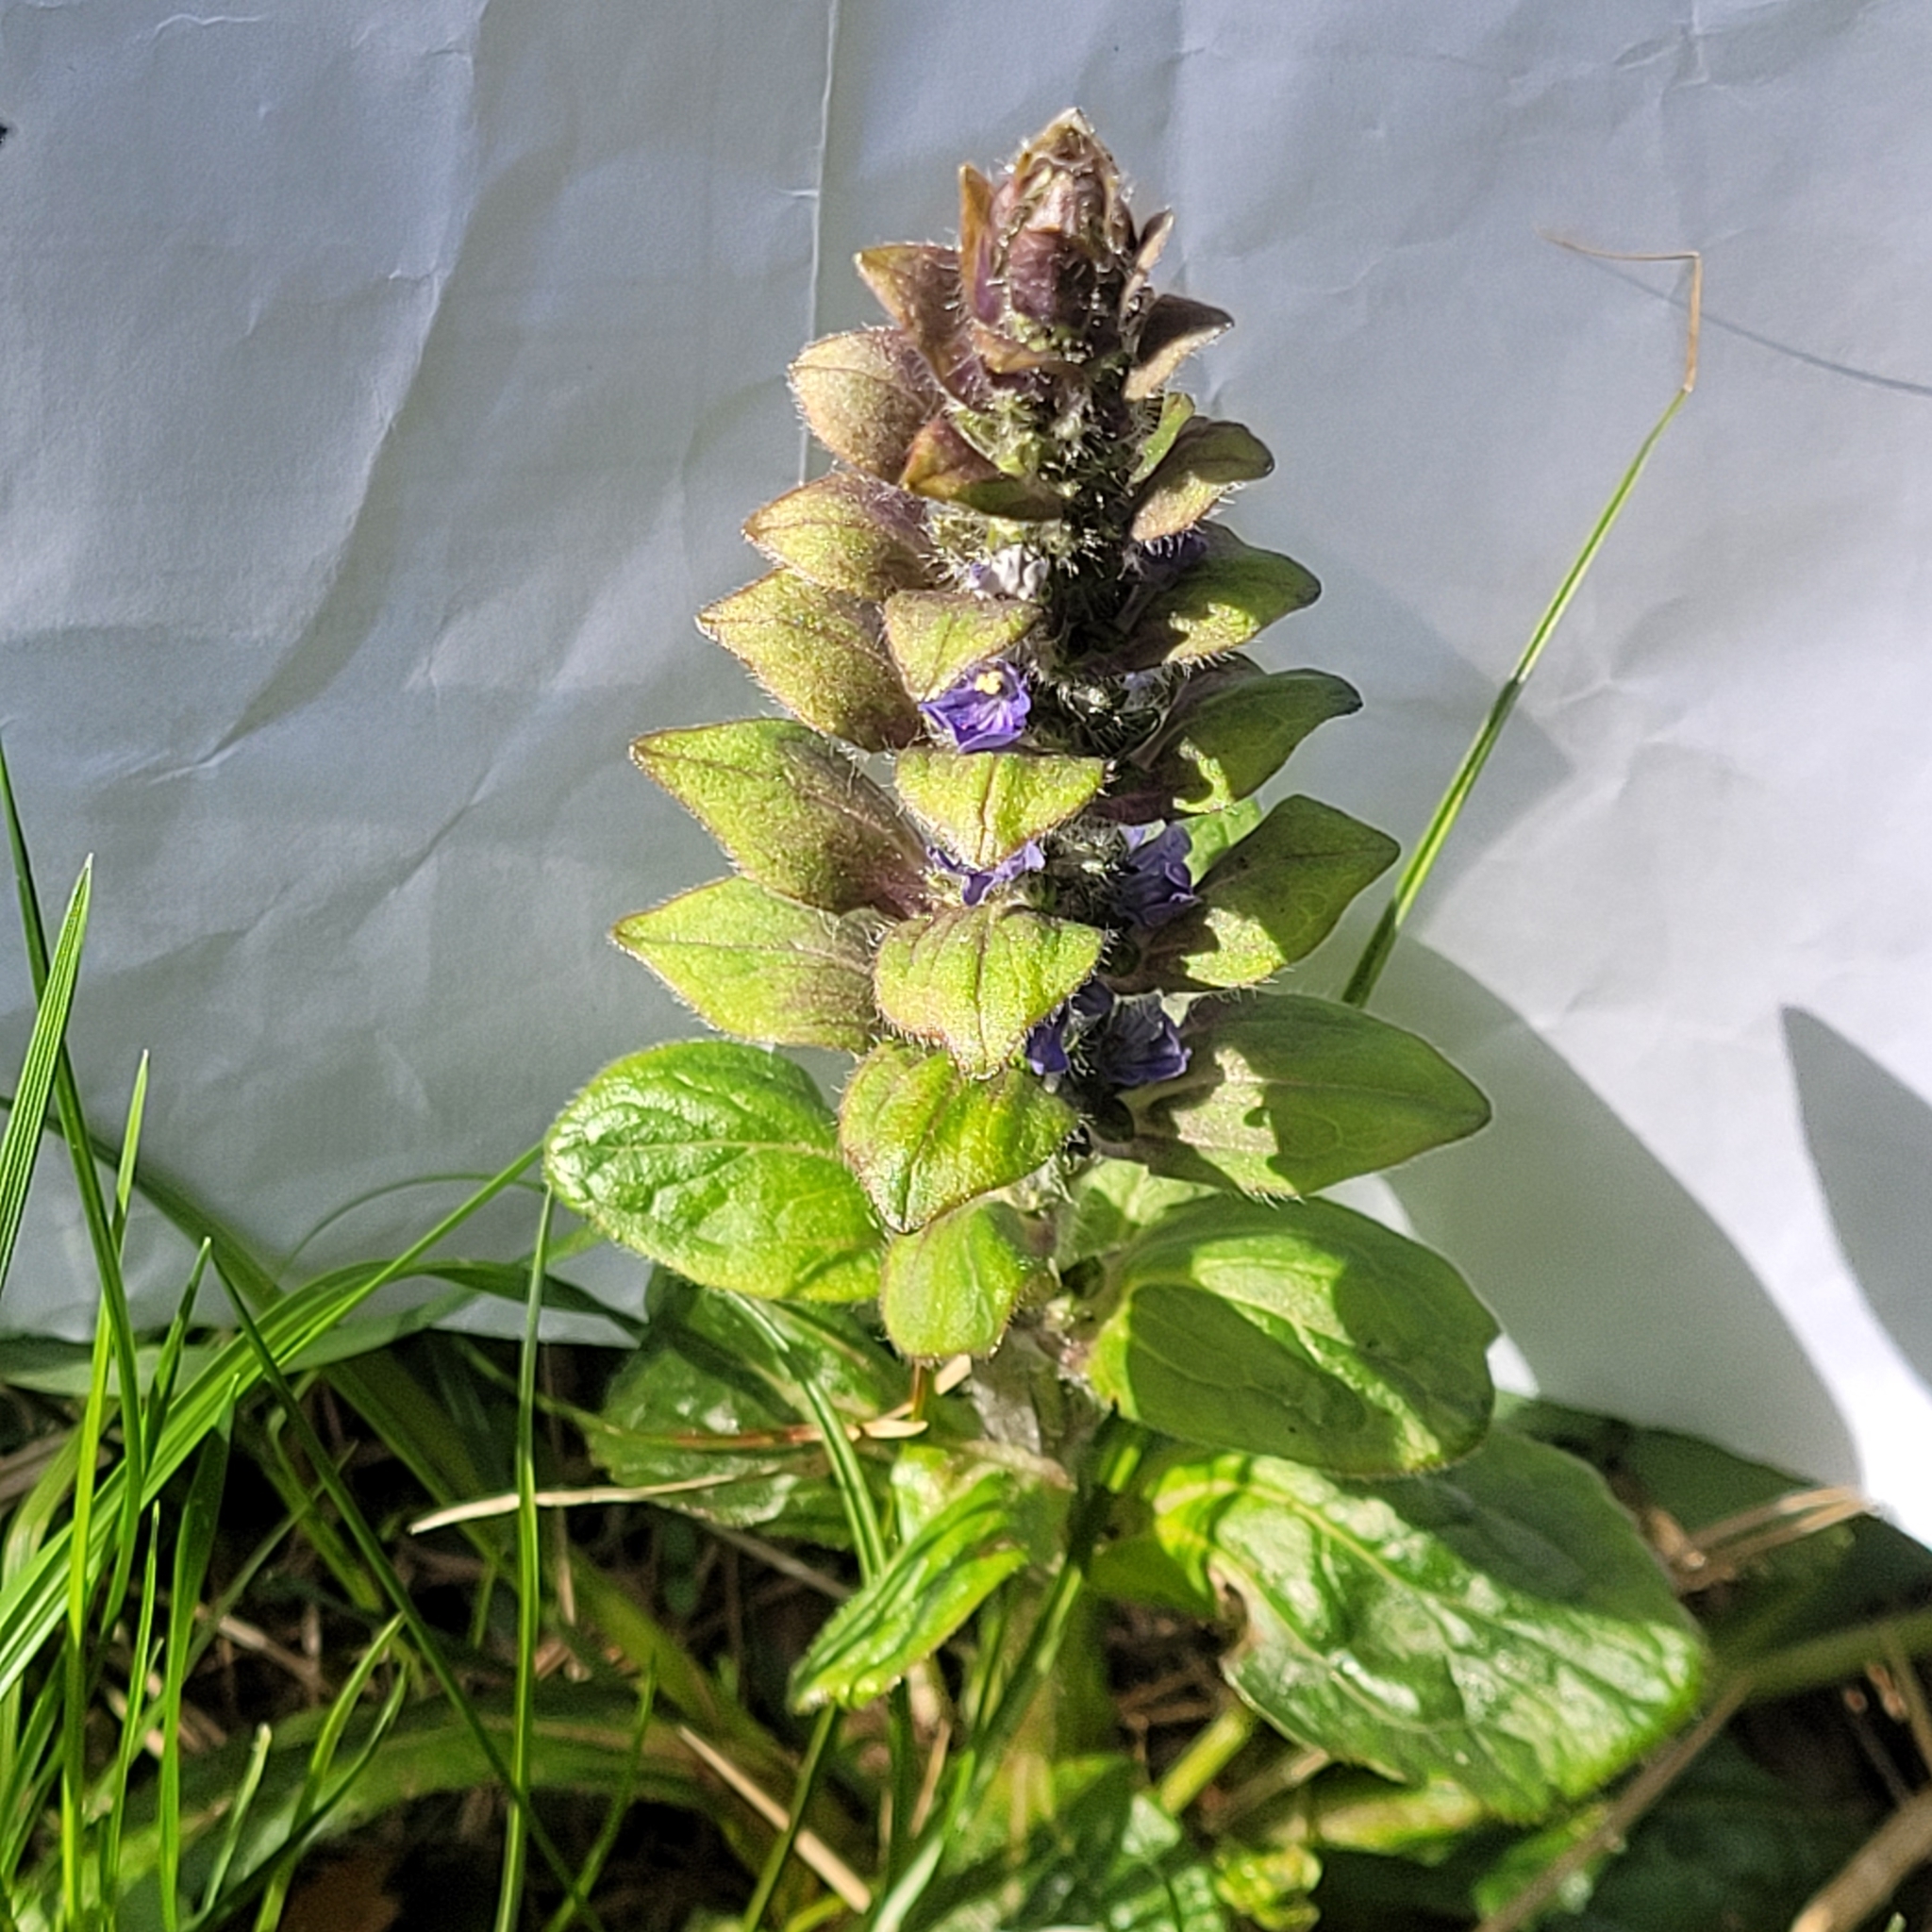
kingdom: Plantae
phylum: Tracheophyta
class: Magnoliopsida
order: Lamiales
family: Lamiaceae
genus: Ajuga
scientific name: Ajuga reptans
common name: Bugle
